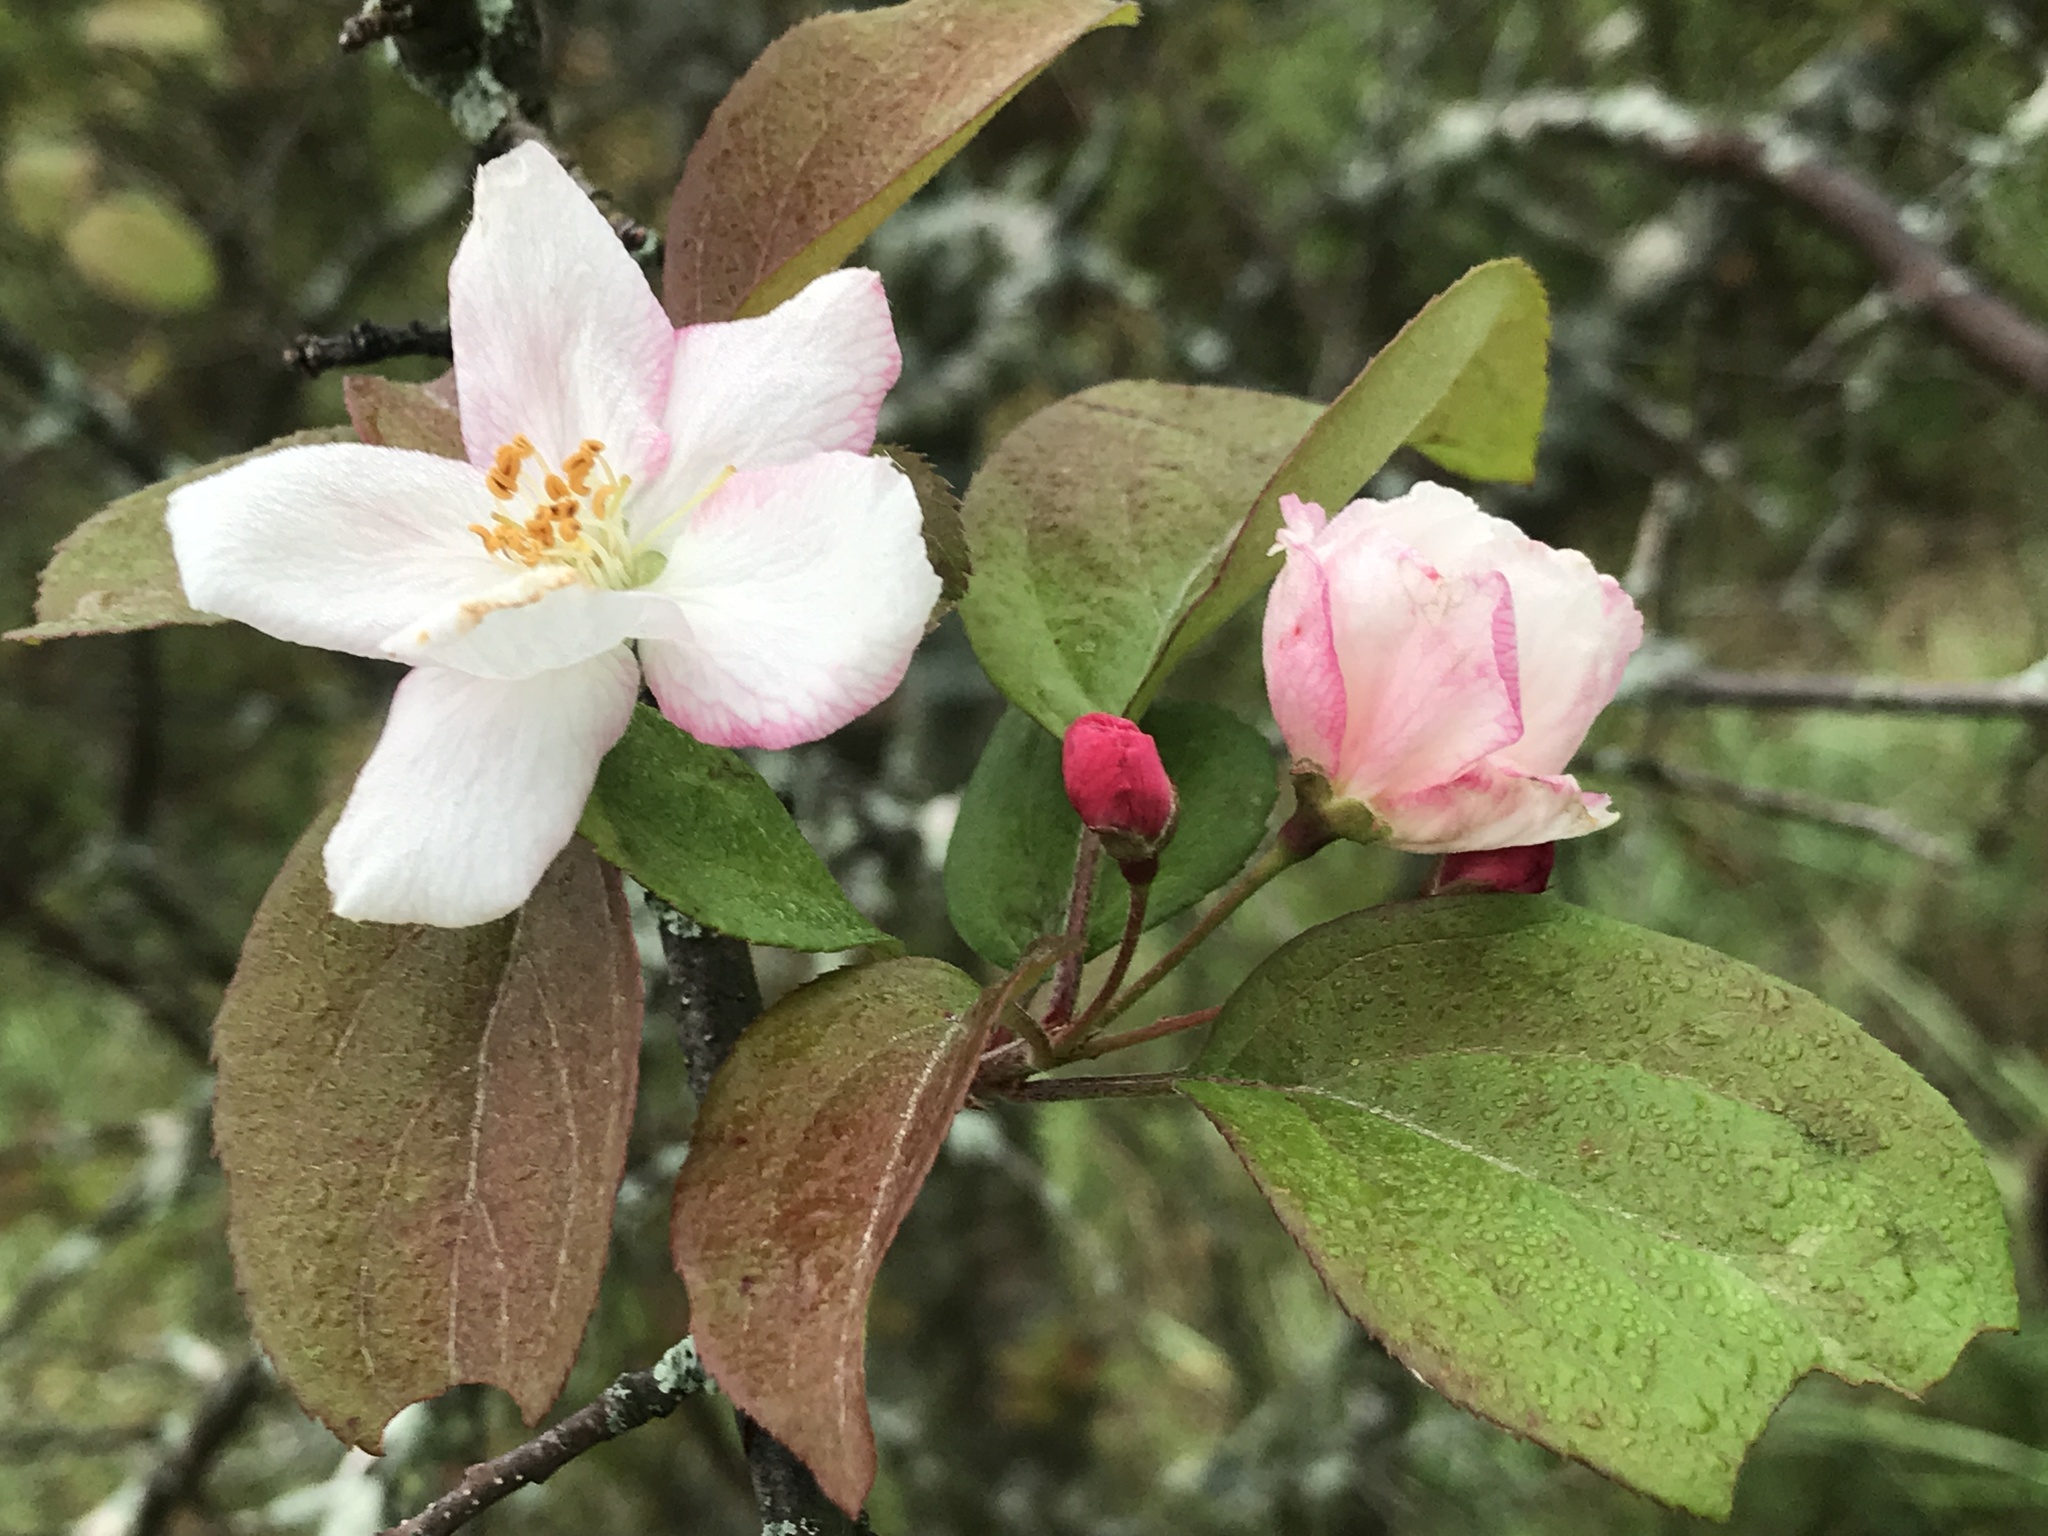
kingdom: Plantae
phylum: Tracheophyta
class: Magnoliopsida
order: Rosales
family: Rosaceae
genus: Malus
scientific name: Malus prunifolia
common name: Chinese apple
